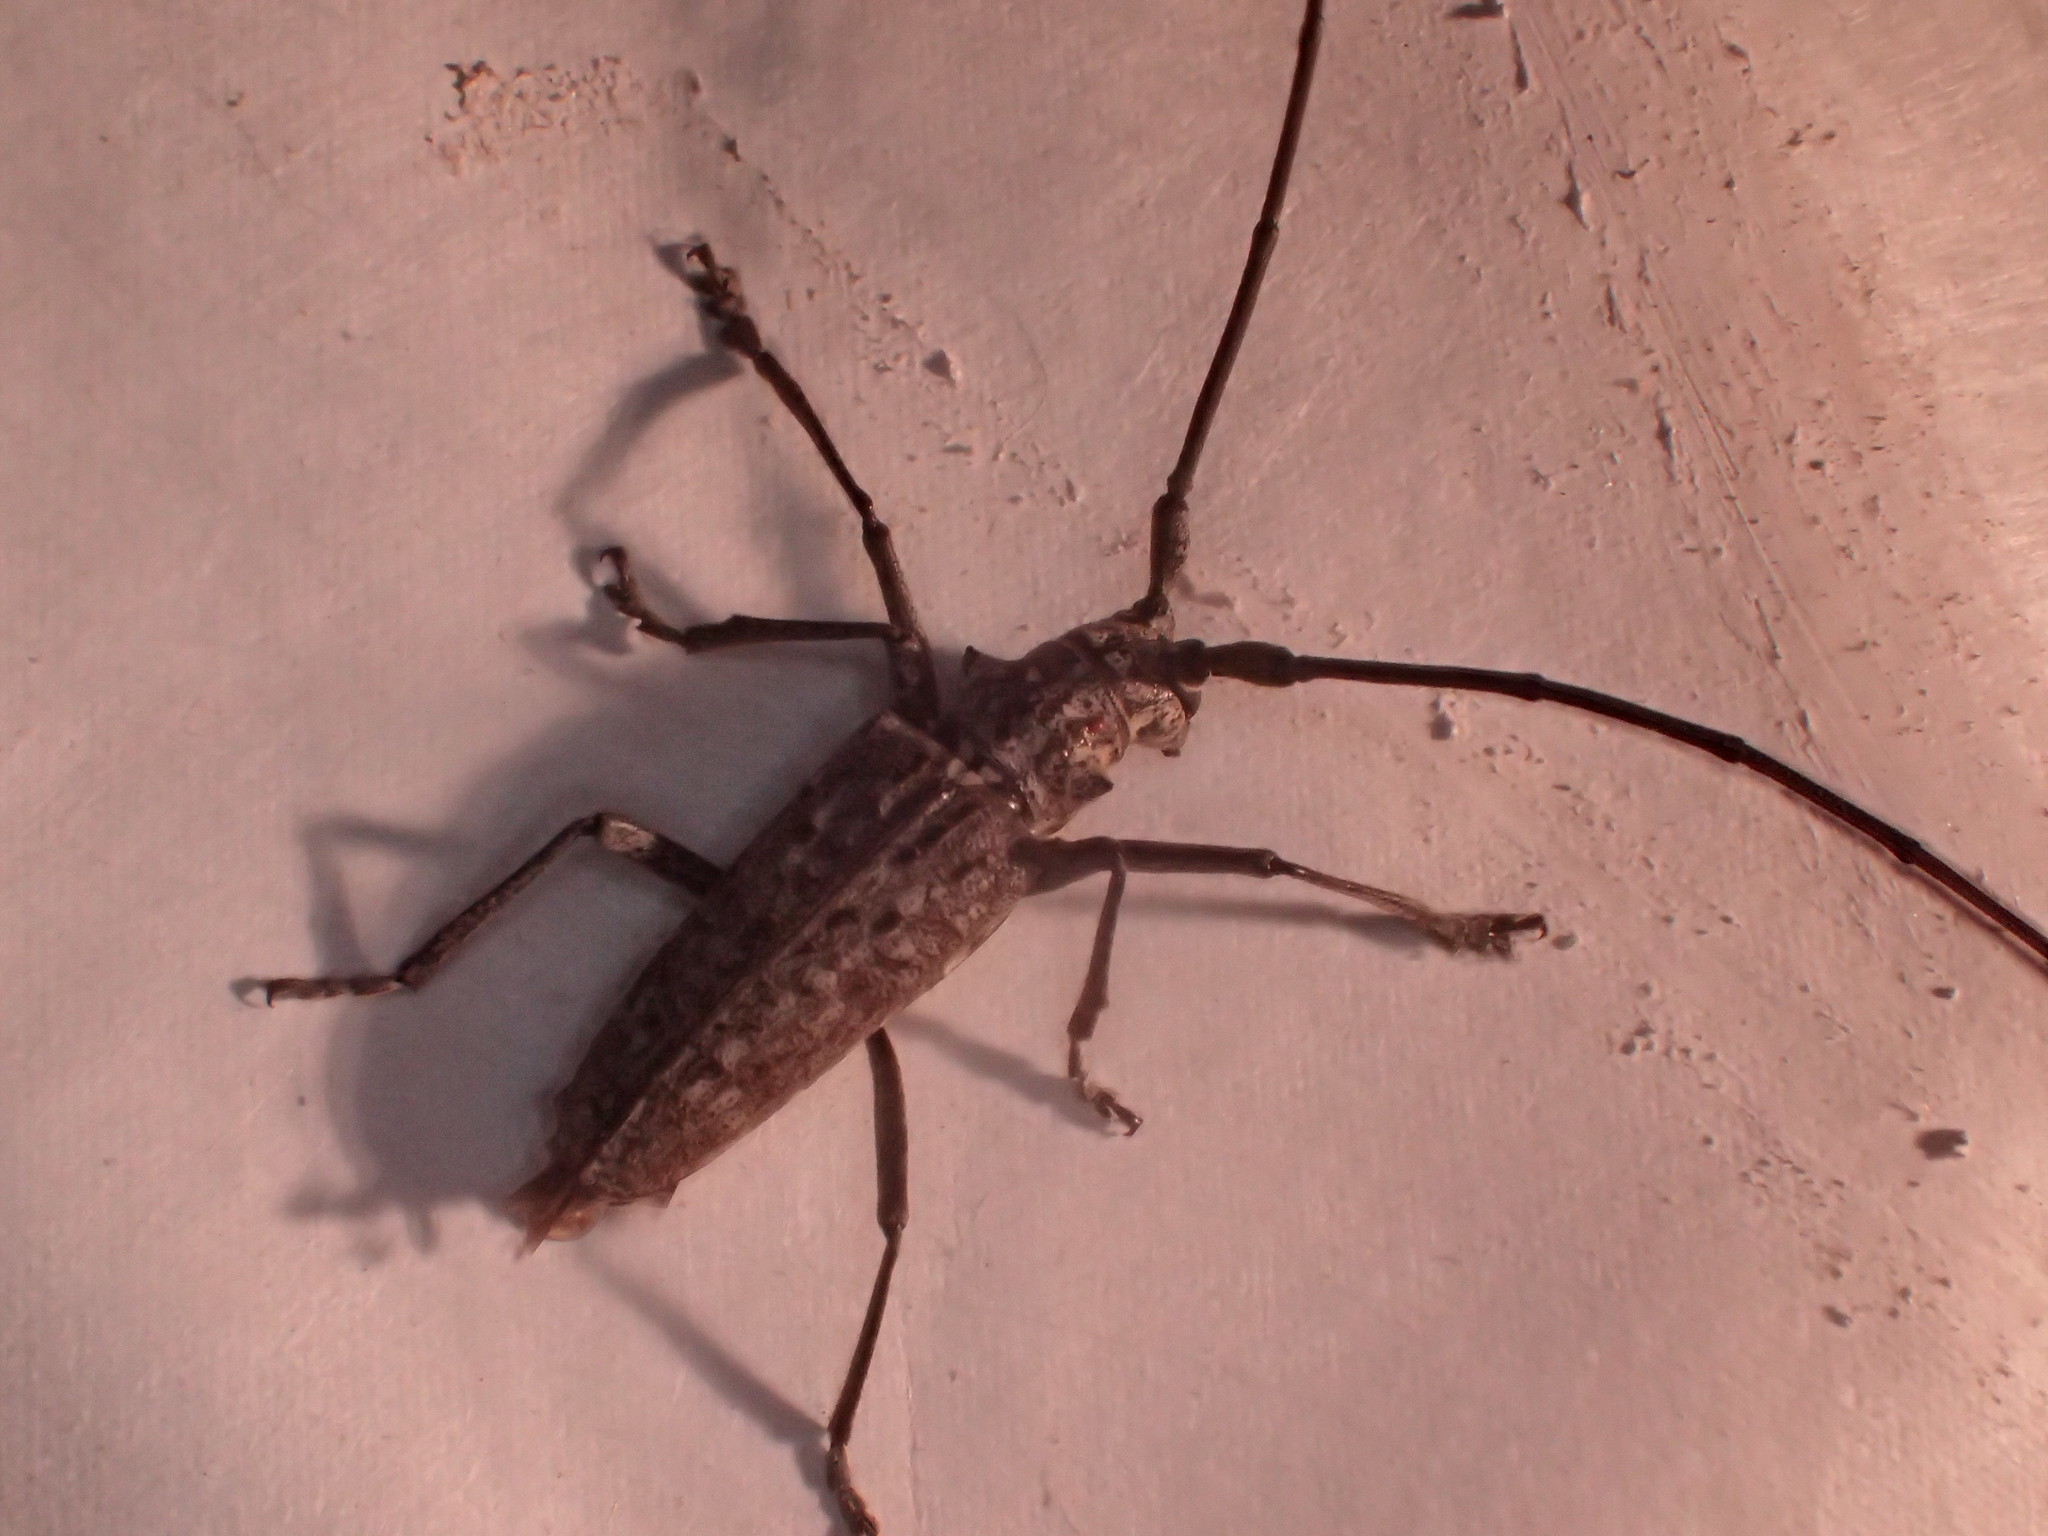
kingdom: Animalia
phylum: Arthropoda
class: Insecta
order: Coleoptera
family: Cerambycidae
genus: Monochamus
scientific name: Monochamus notatus
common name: Northeastern pine sawyer beetle
